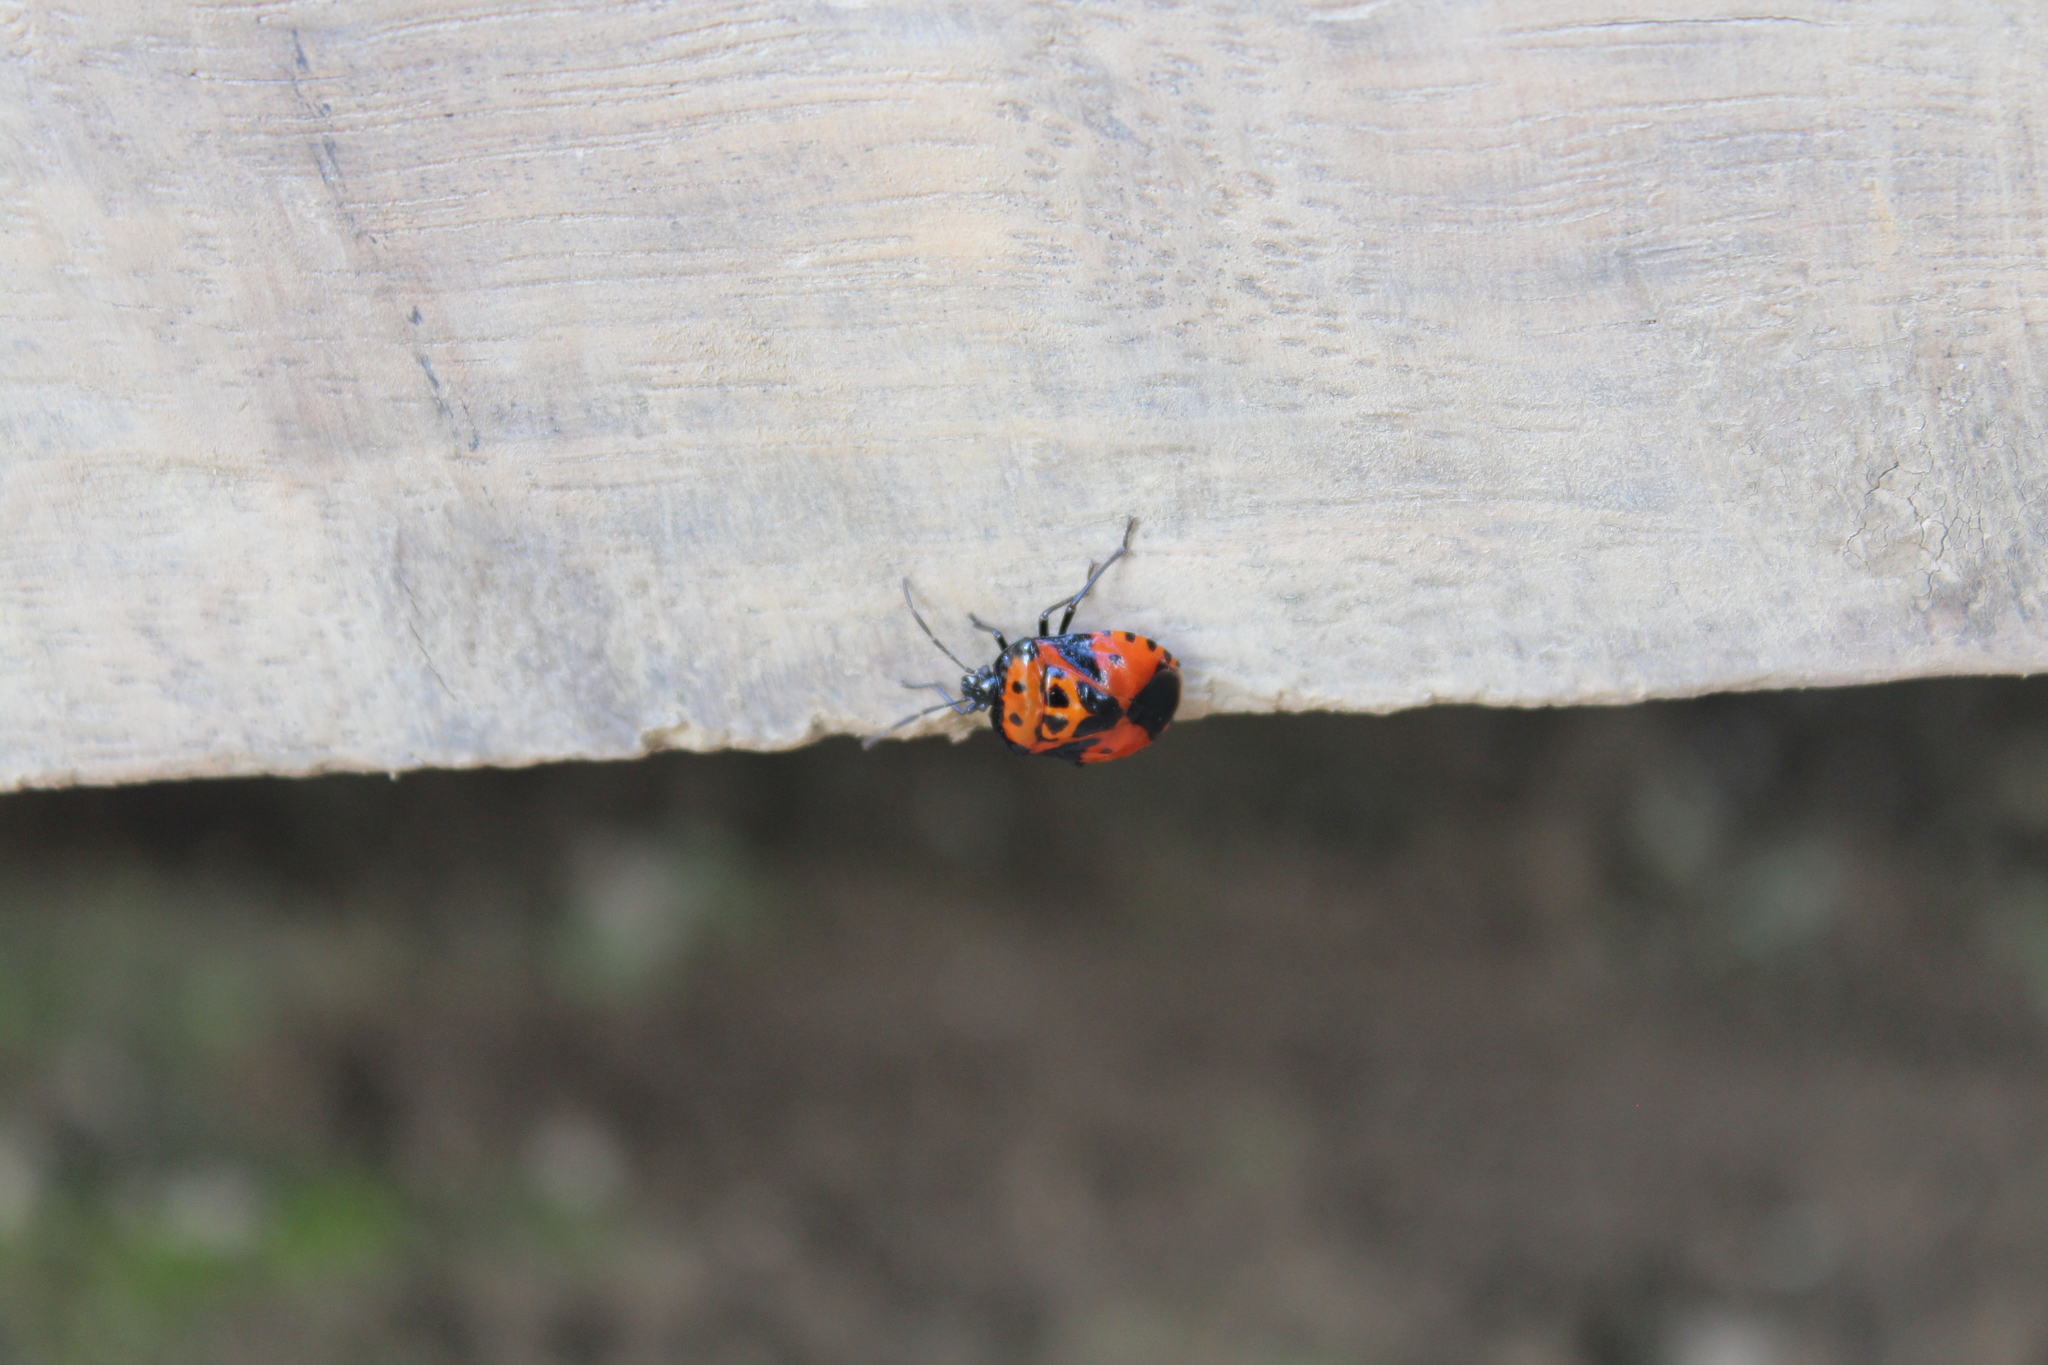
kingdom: Animalia
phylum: Arthropoda
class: Insecta
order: Hemiptera
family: Pentatomidae
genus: Arocera
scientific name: Arocera
